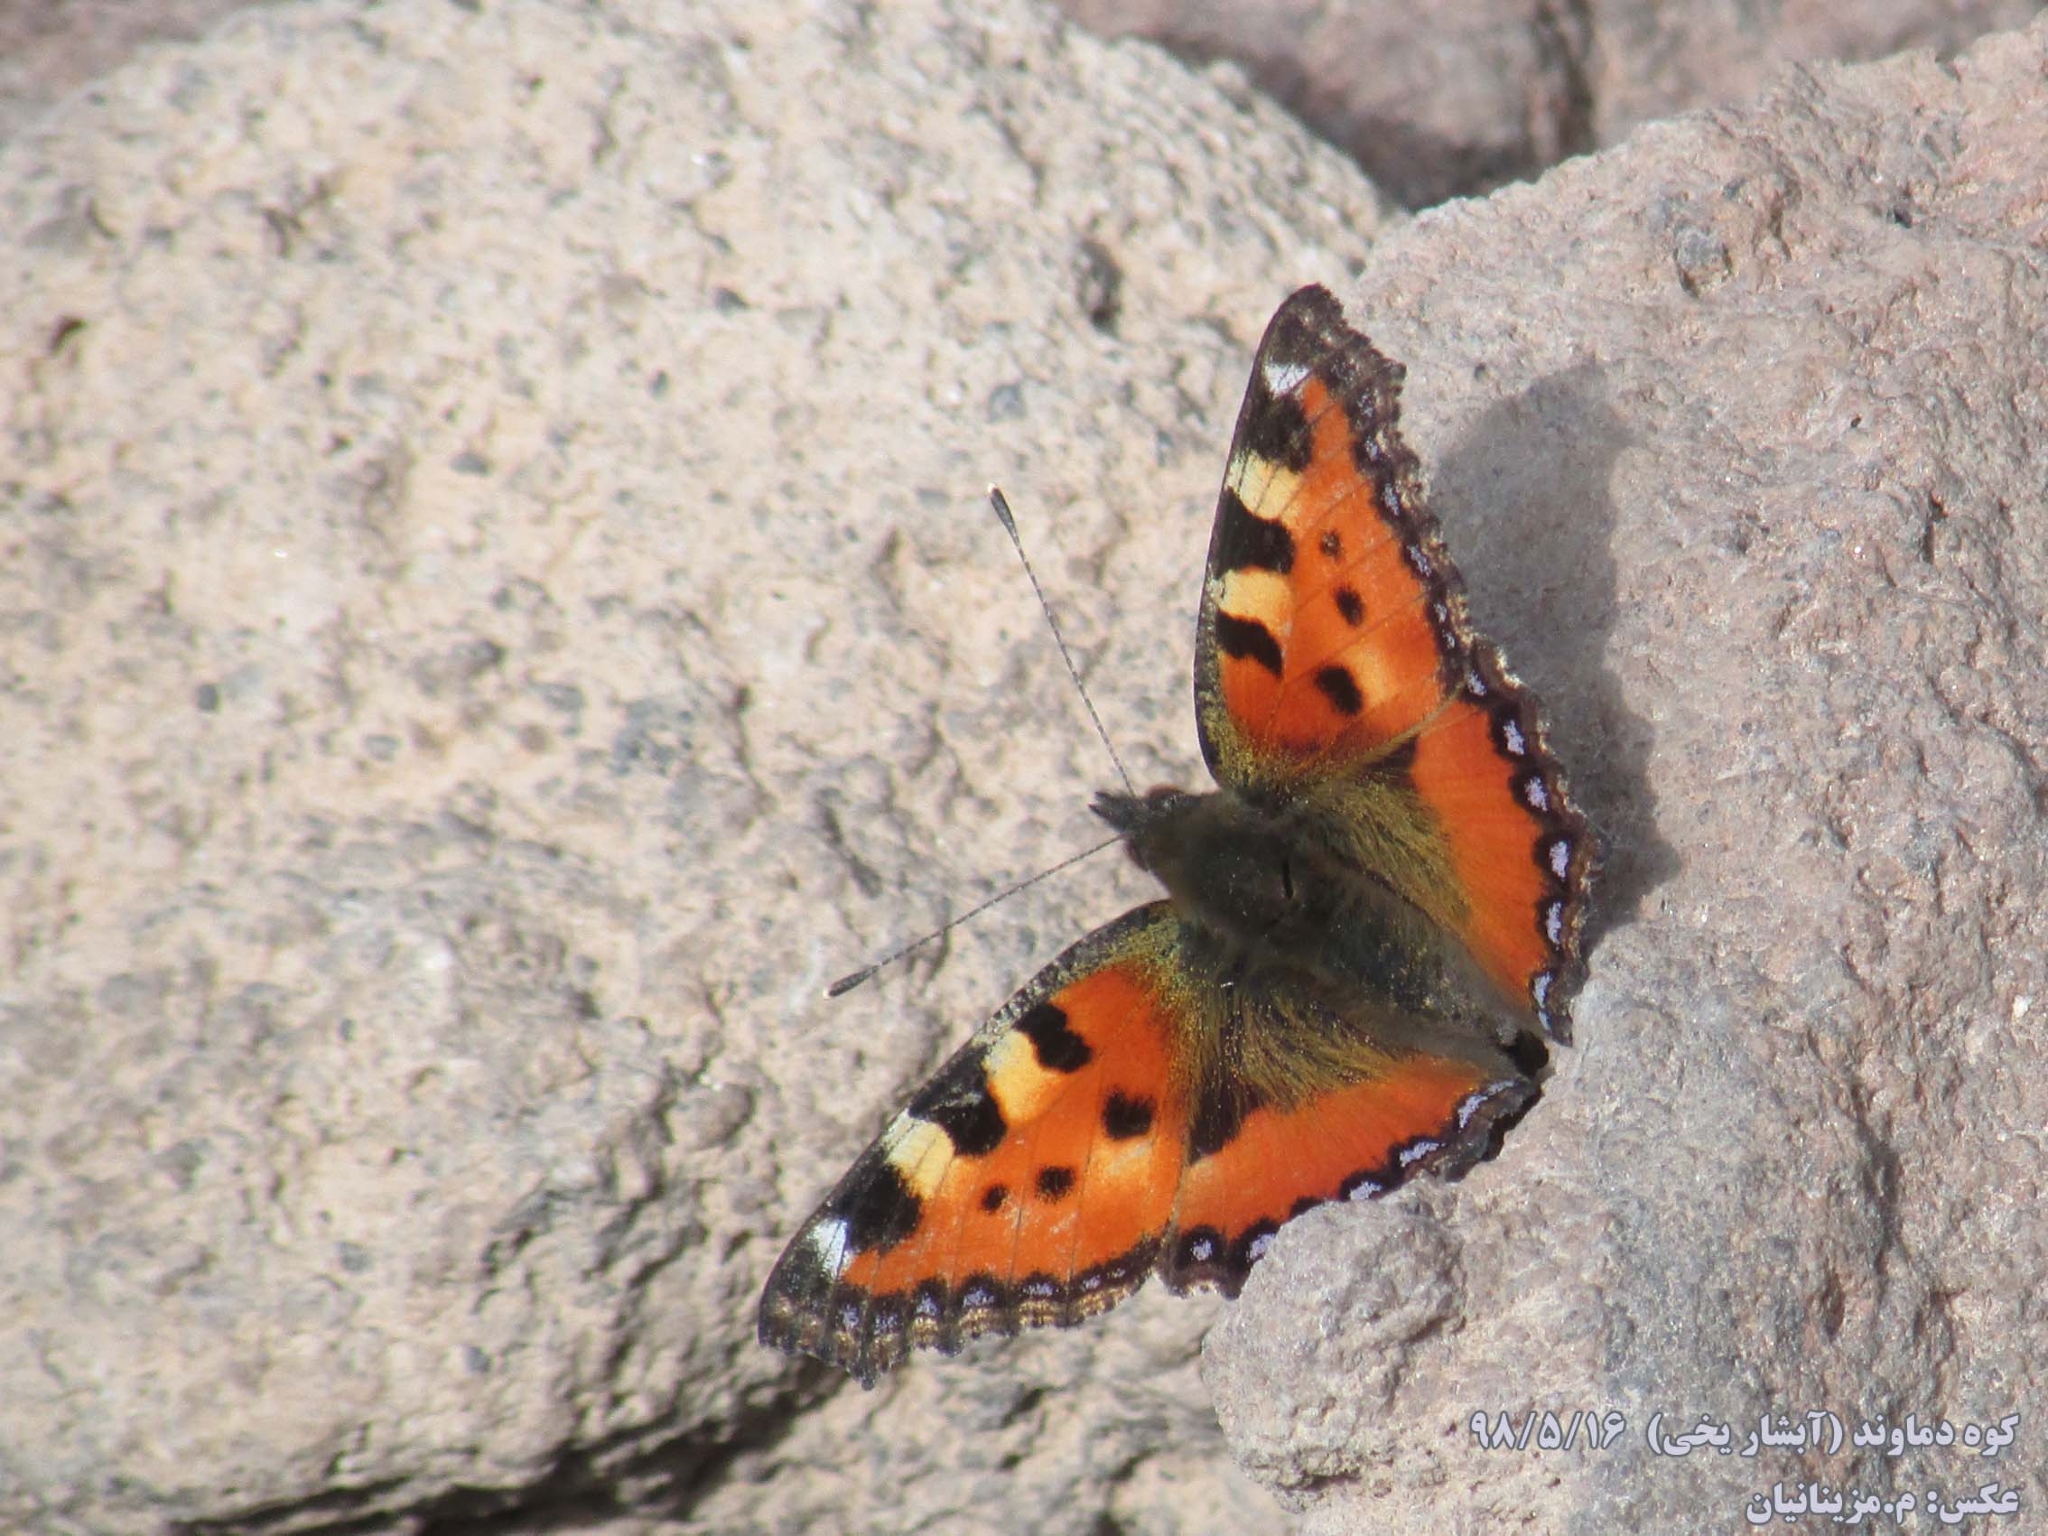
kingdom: Animalia
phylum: Arthropoda
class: Insecta
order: Lepidoptera
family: Nymphalidae
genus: Aglais
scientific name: Aglais urticae
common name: Small tortoiseshell
